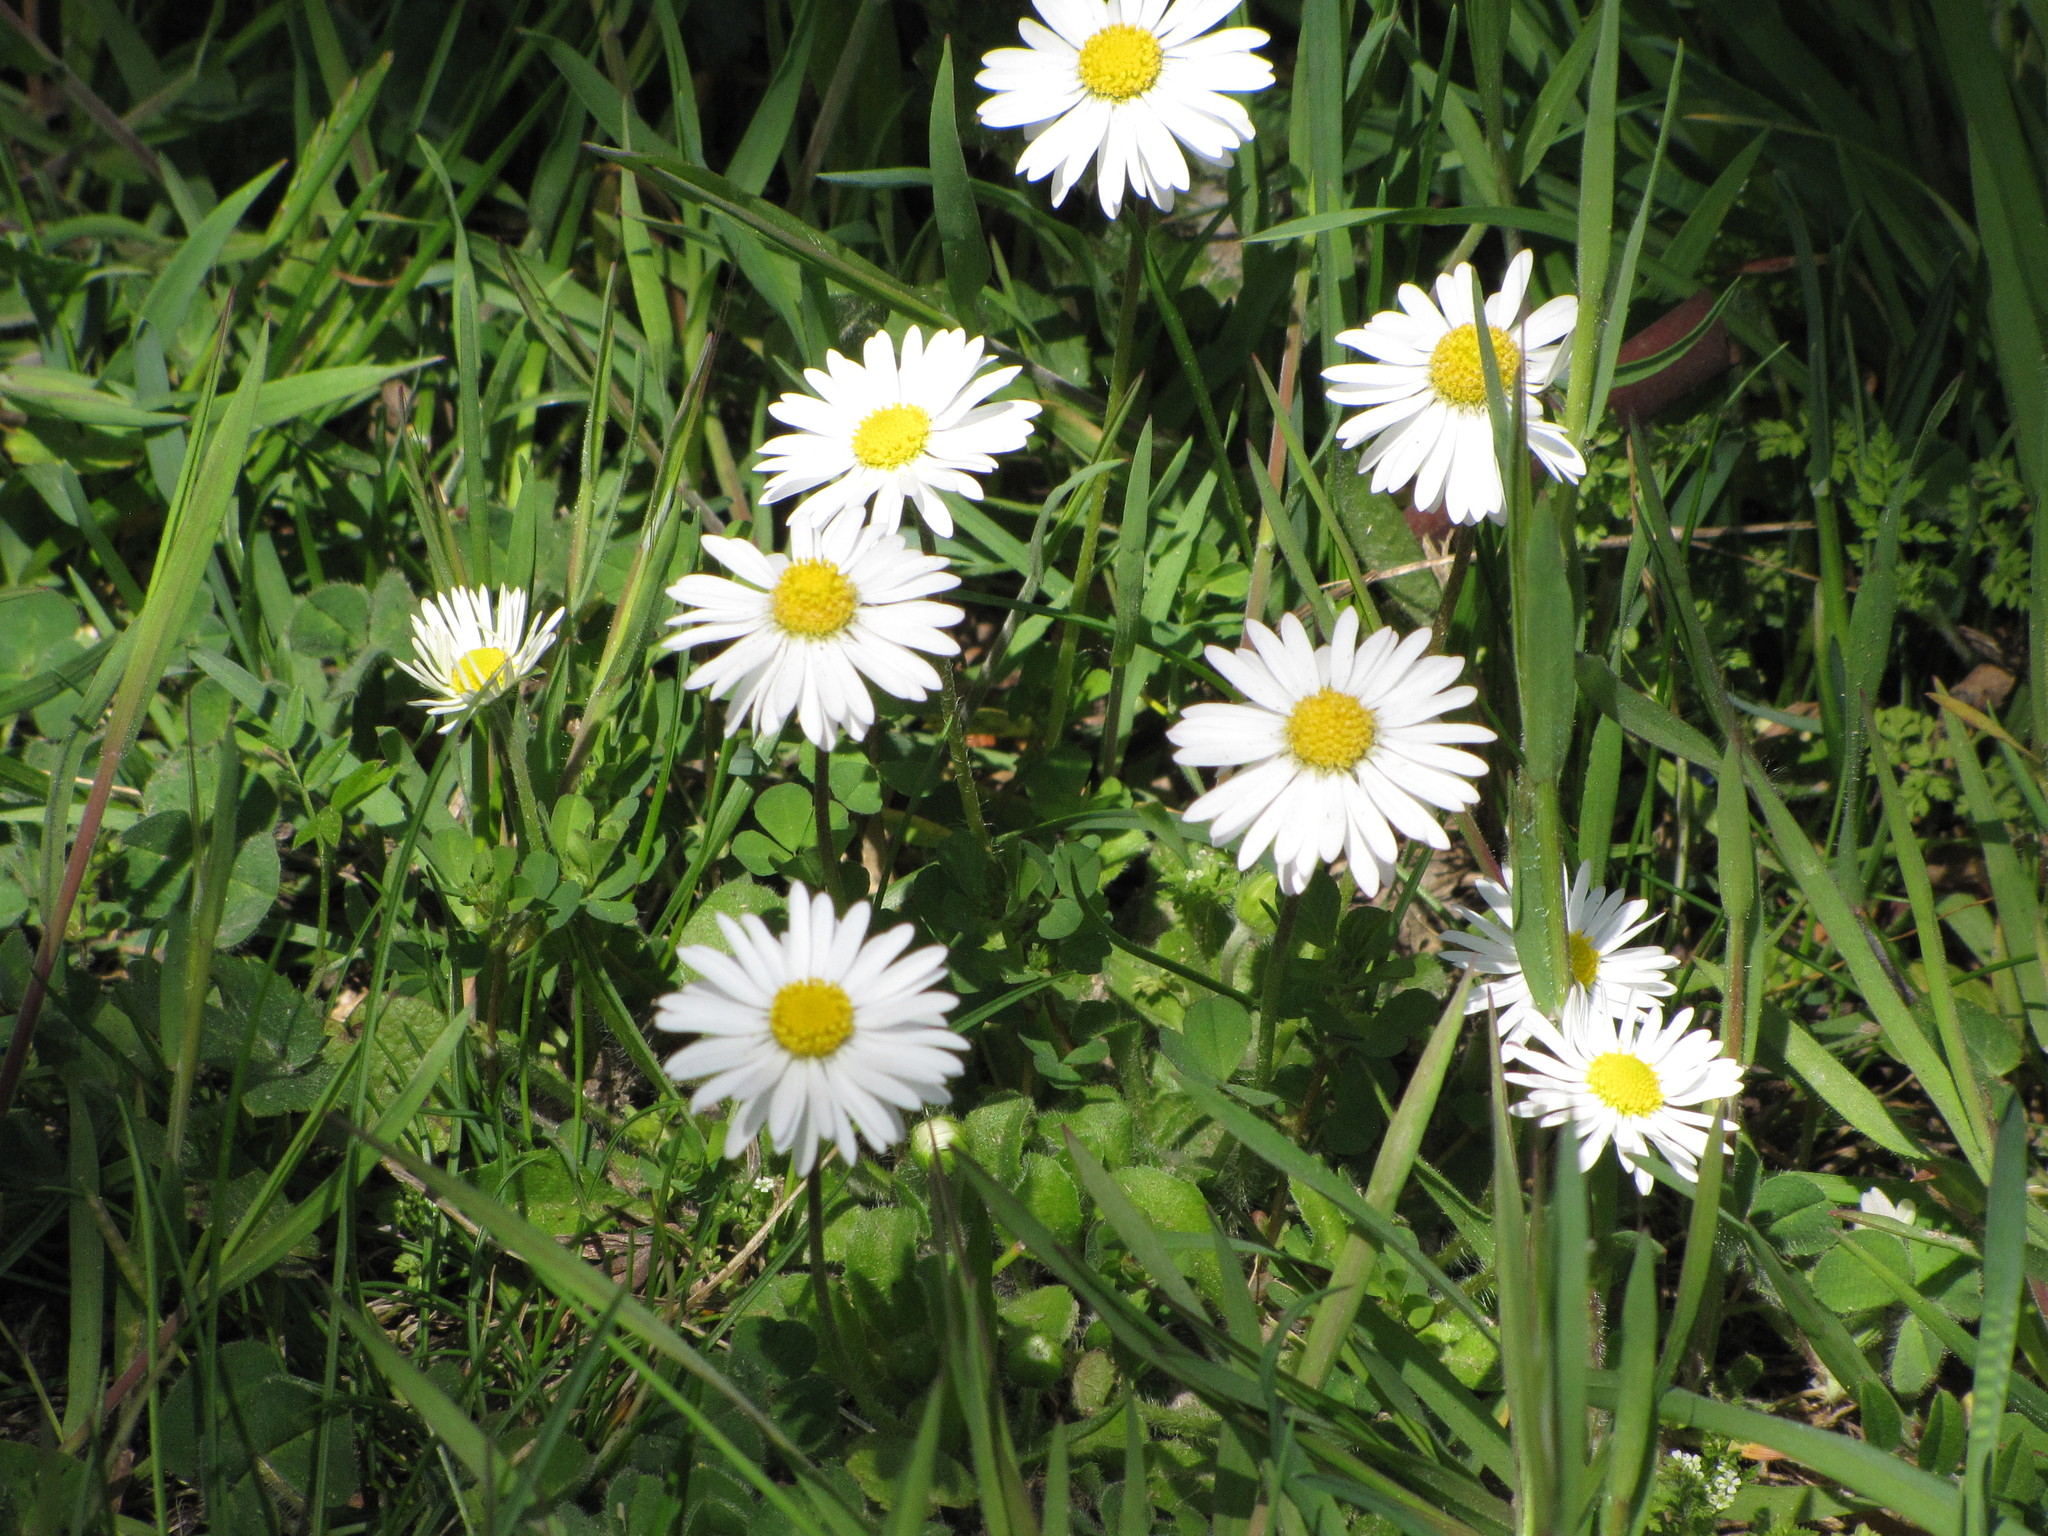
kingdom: Plantae
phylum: Tracheophyta
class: Magnoliopsida
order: Asterales
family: Asteraceae
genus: Bellis
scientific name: Bellis perennis
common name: Lawndaisy
